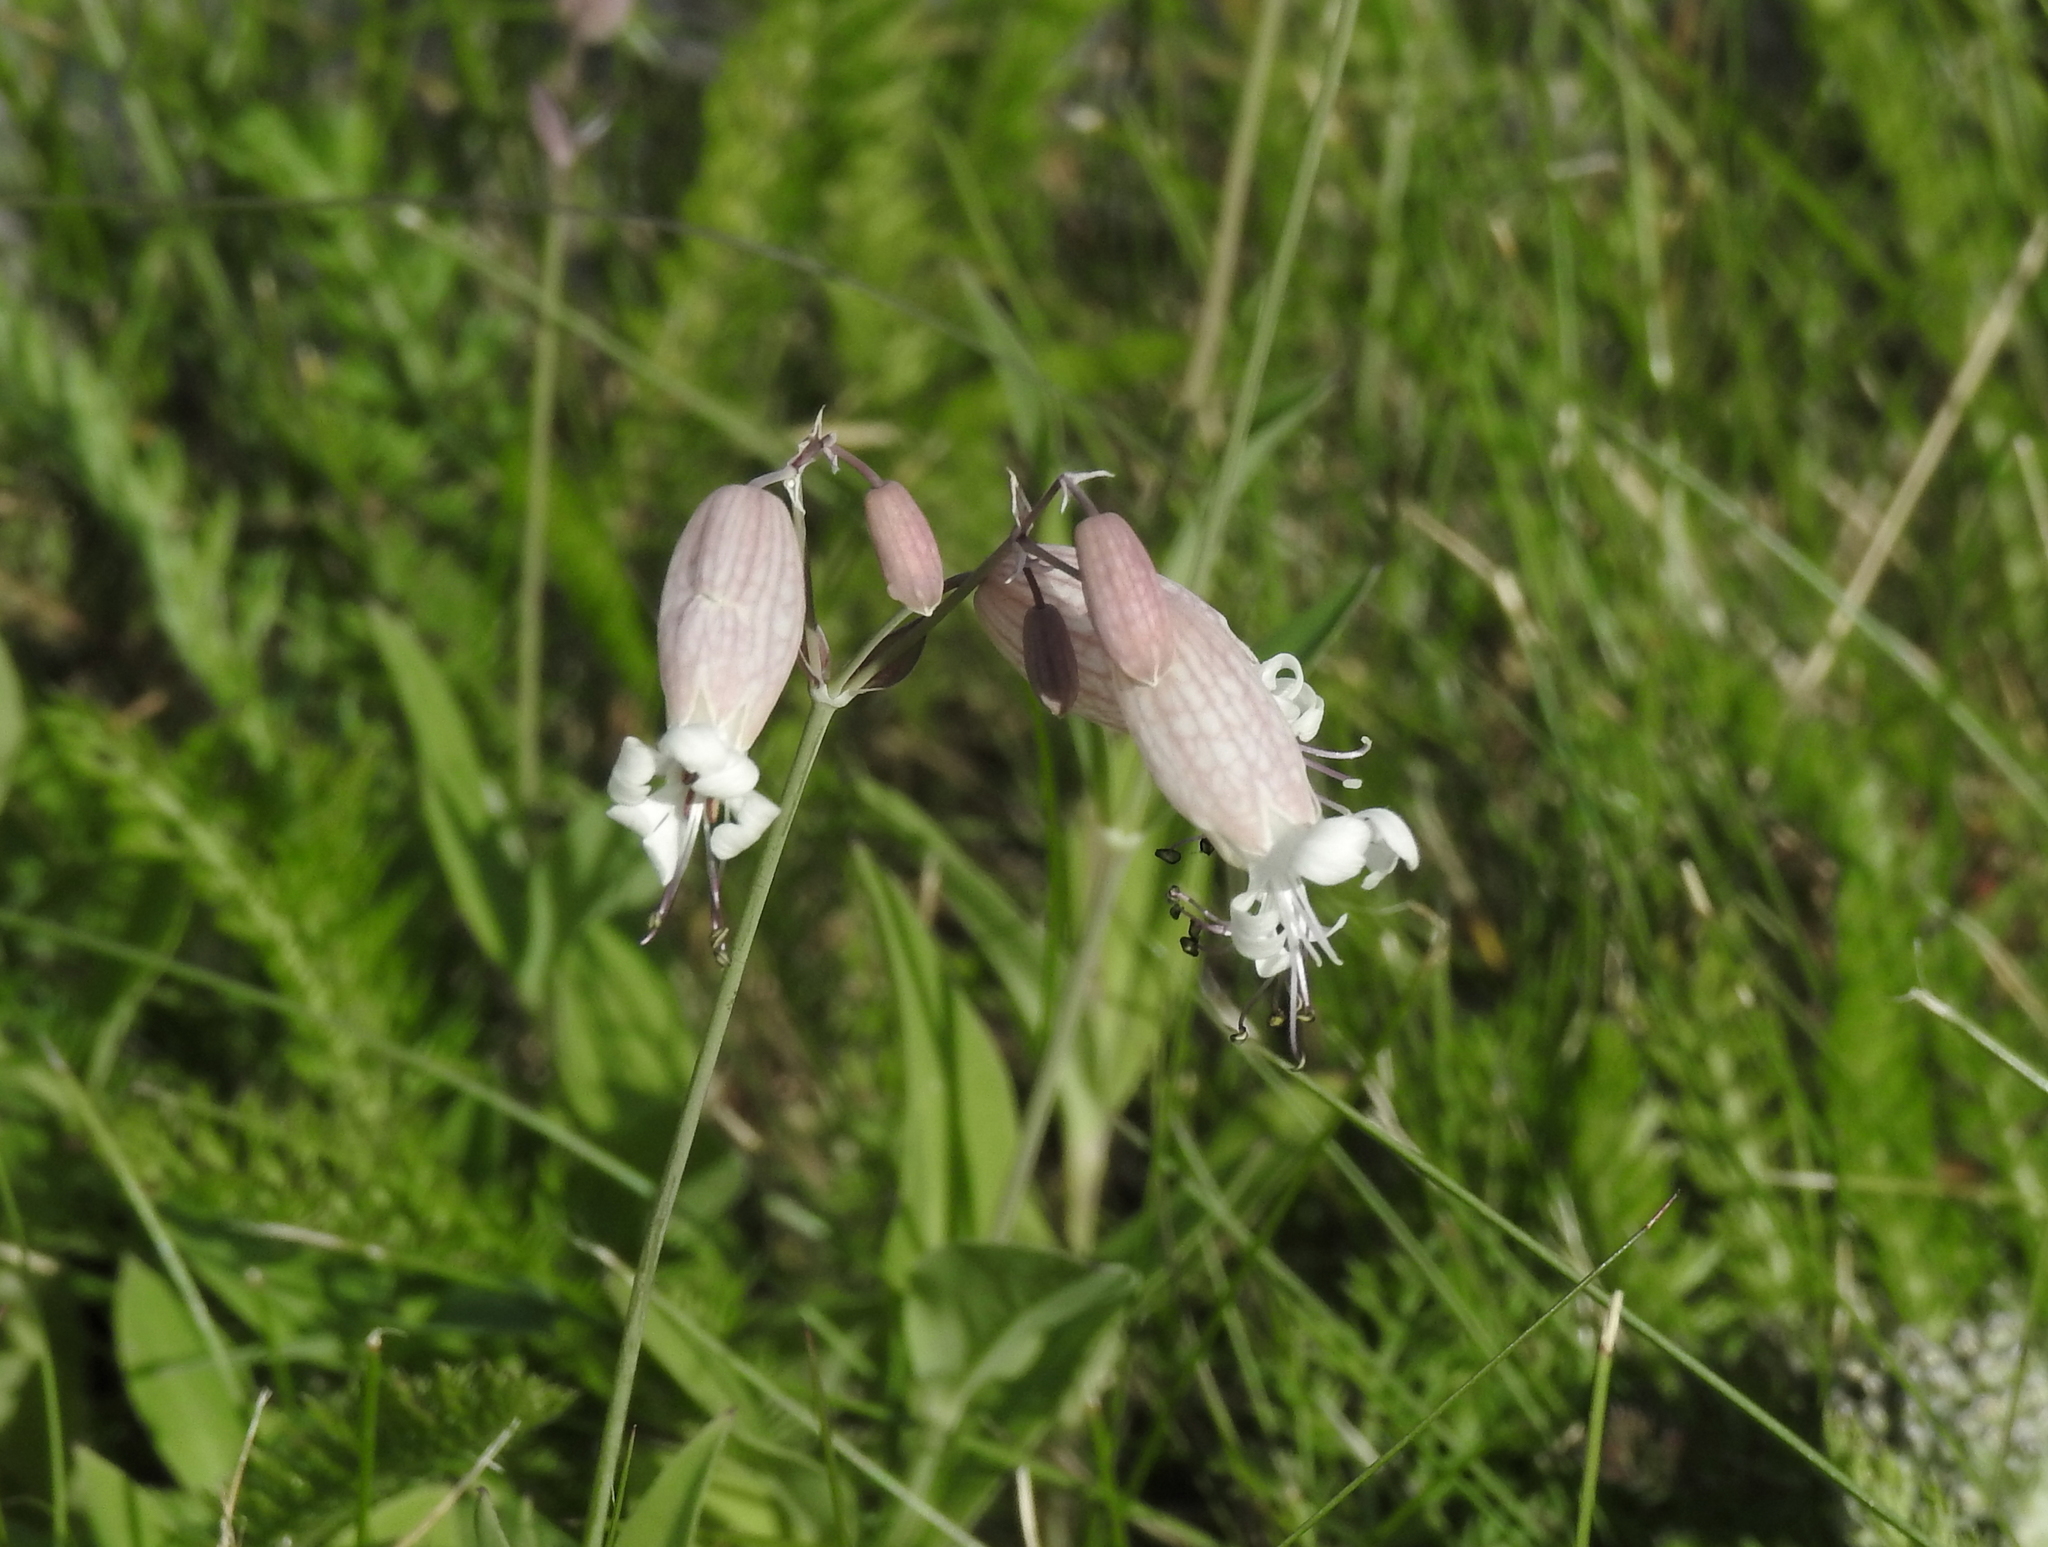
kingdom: Plantae
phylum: Tracheophyta
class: Magnoliopsida
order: Caryophyllales
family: Caryophyllaceae
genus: Silene
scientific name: Silene vulgaris
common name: Bladder campion
